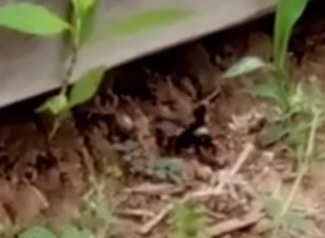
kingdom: Animalia
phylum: Arthropoda
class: Insecta
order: Hymenoptera
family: Apidae
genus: Bombus
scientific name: Bombus pensylvanicus
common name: Bumble bee
